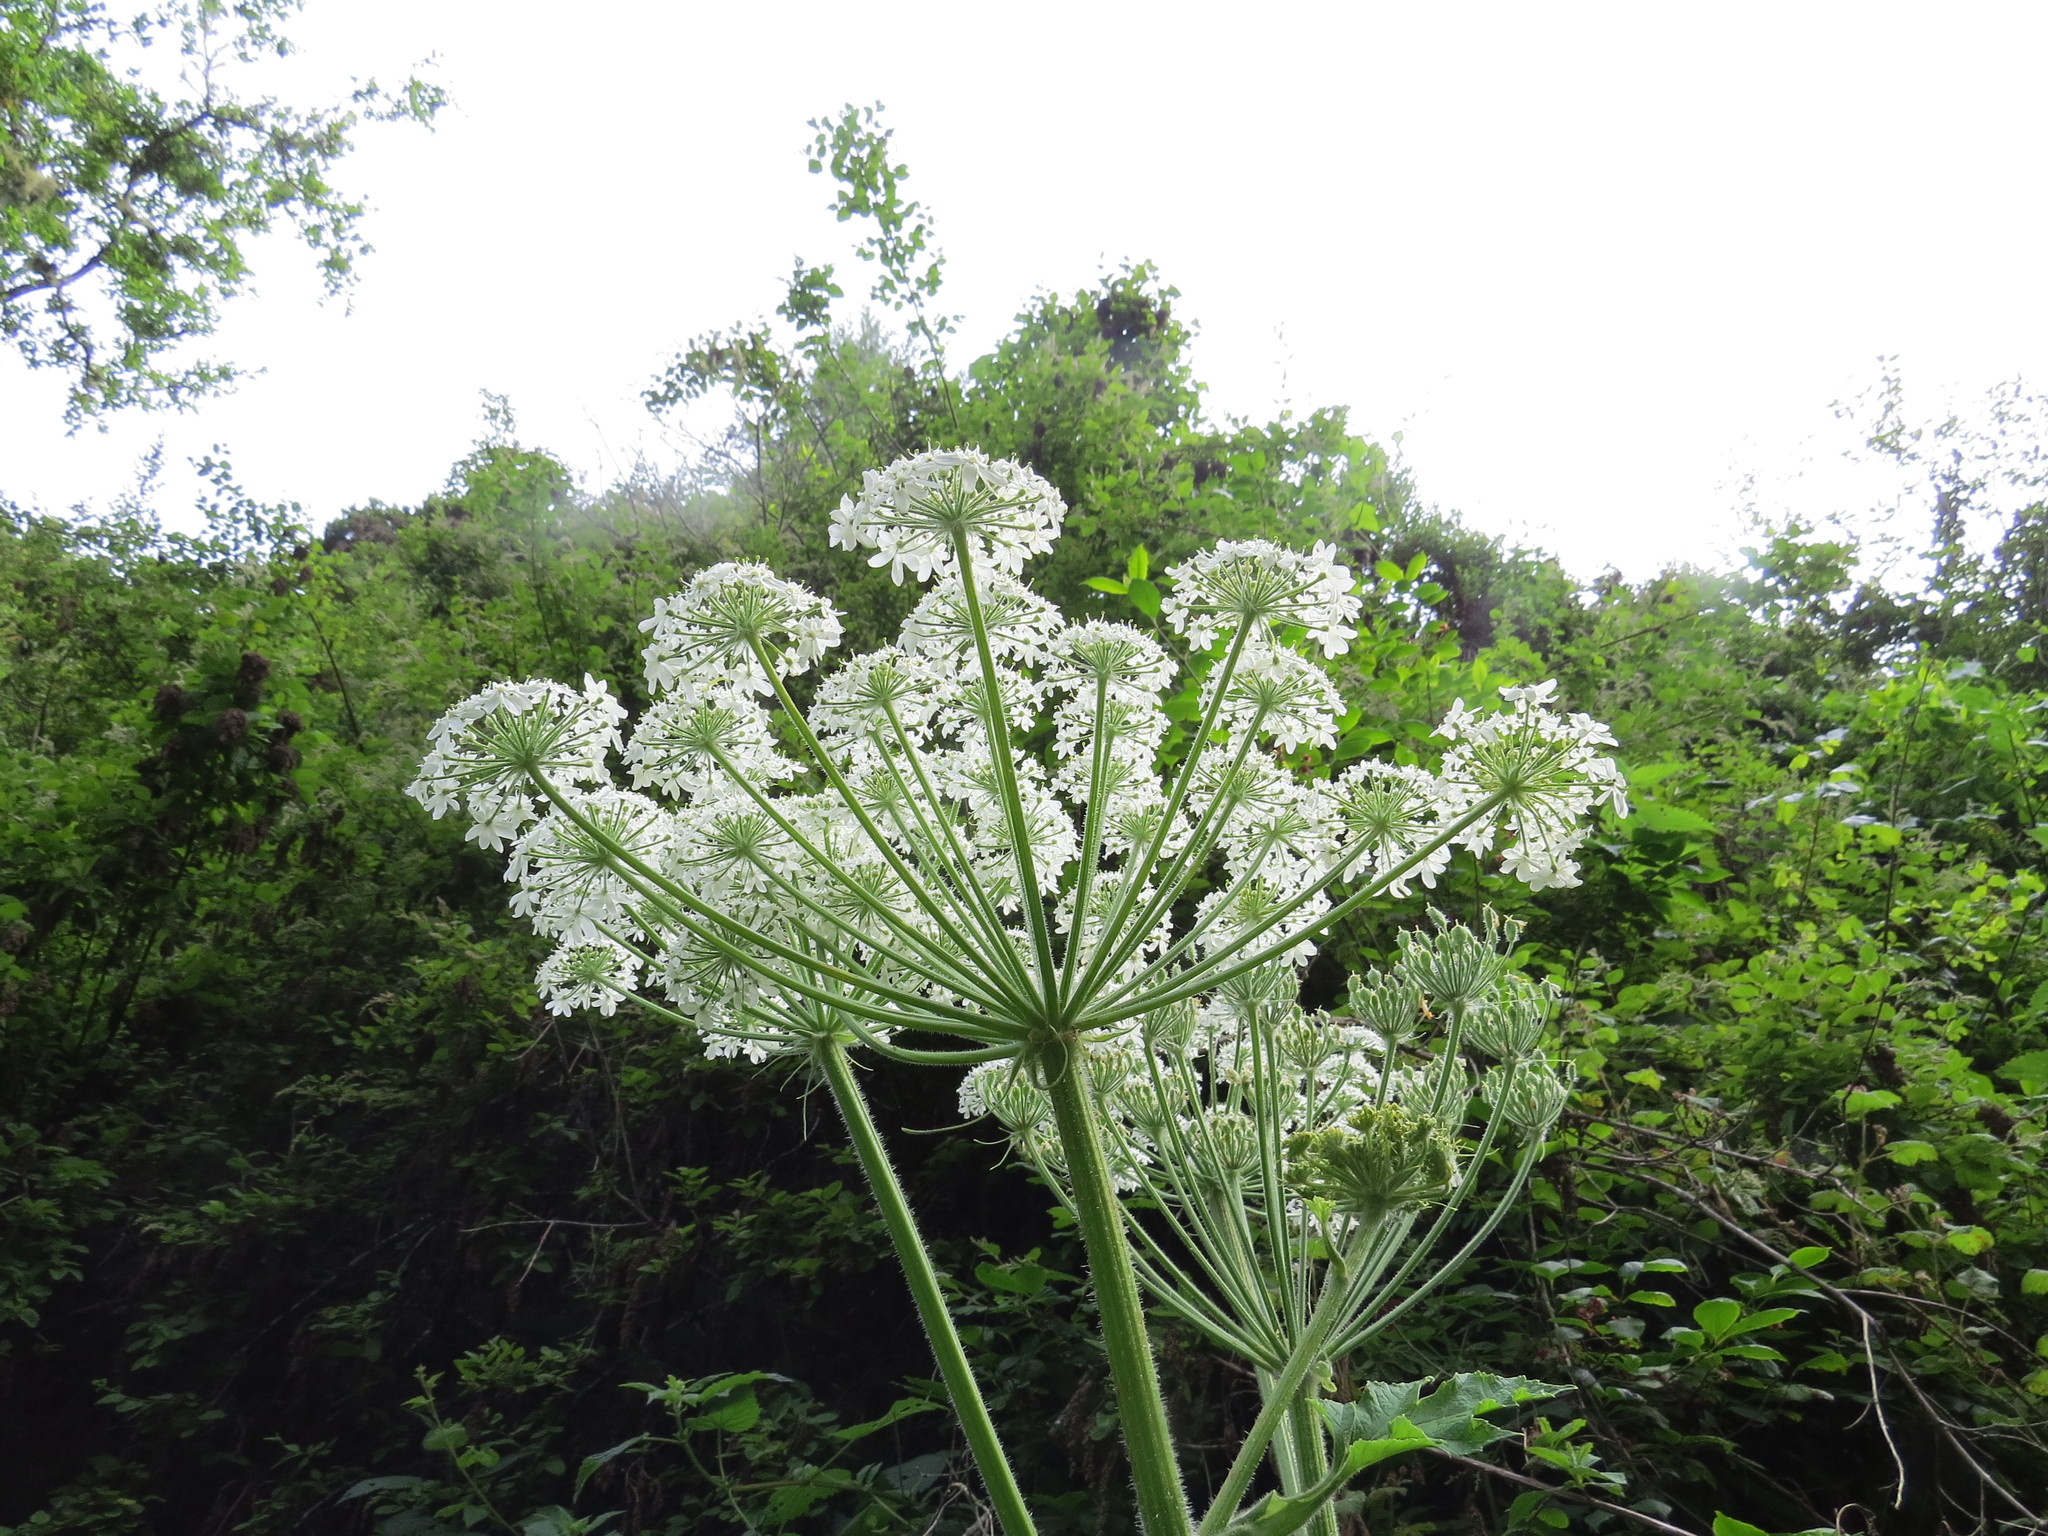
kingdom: Plantae
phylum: Tracheophyta
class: Magnoliopsida
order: Apiales
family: Apiaceae
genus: Heracleum
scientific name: Heracleum maximum
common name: American cow parsnip
